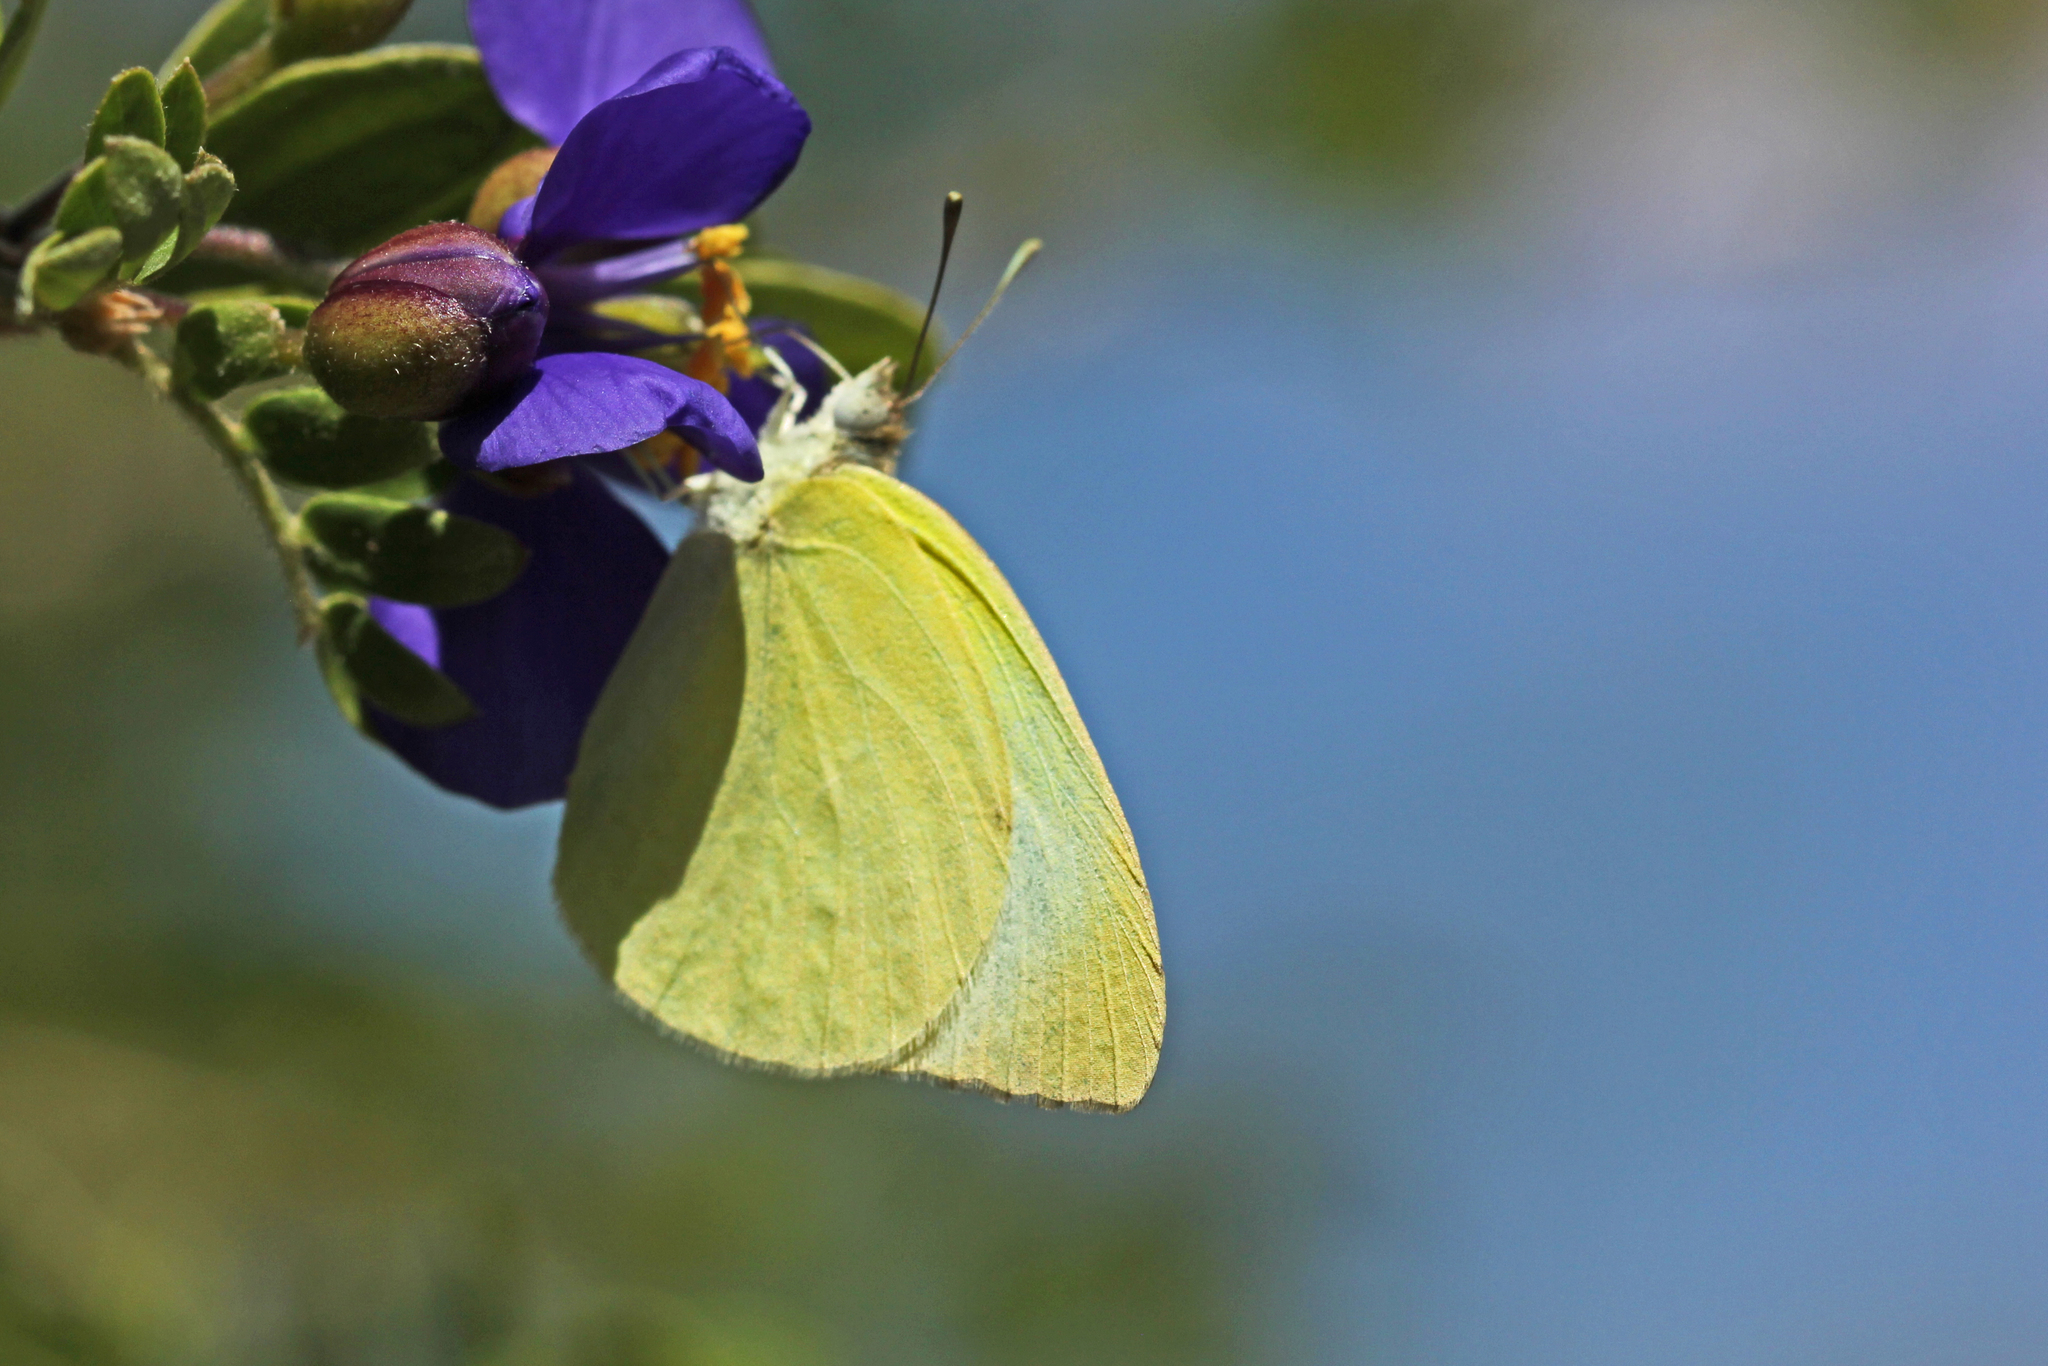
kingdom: Animalia
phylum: Arthropoda
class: Insecta
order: Lepidoptera
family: Pieridae
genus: Kricogonia
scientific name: Kricogonia lyside
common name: Guayacan sulphur,
